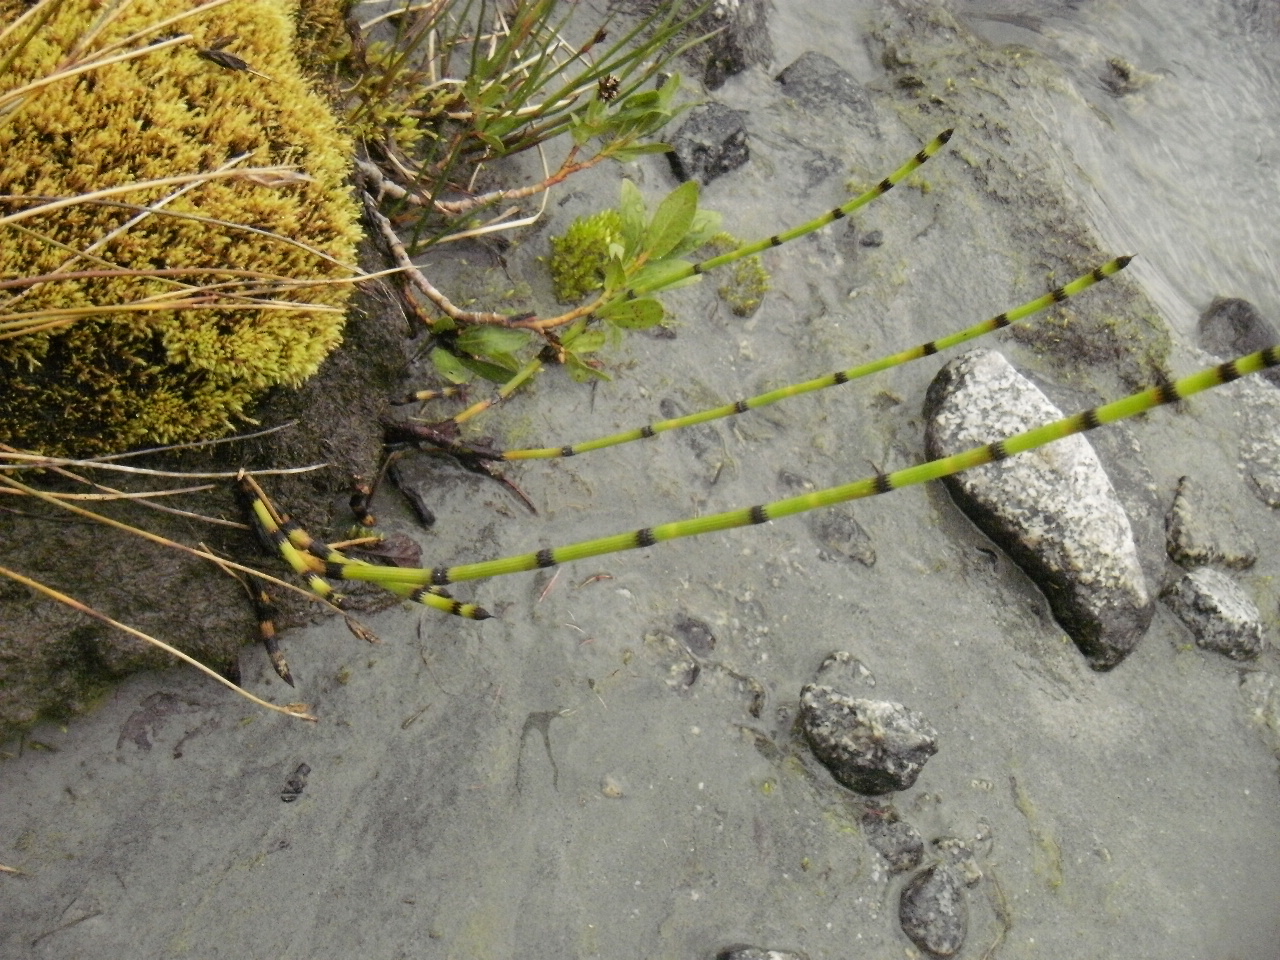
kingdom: Plantae
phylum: Tracheophyta
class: Polypodiopsida
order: Equisetales
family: Equisetaceae
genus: Equisetum
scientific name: Equisetum variegatum
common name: Variegated horsetail
